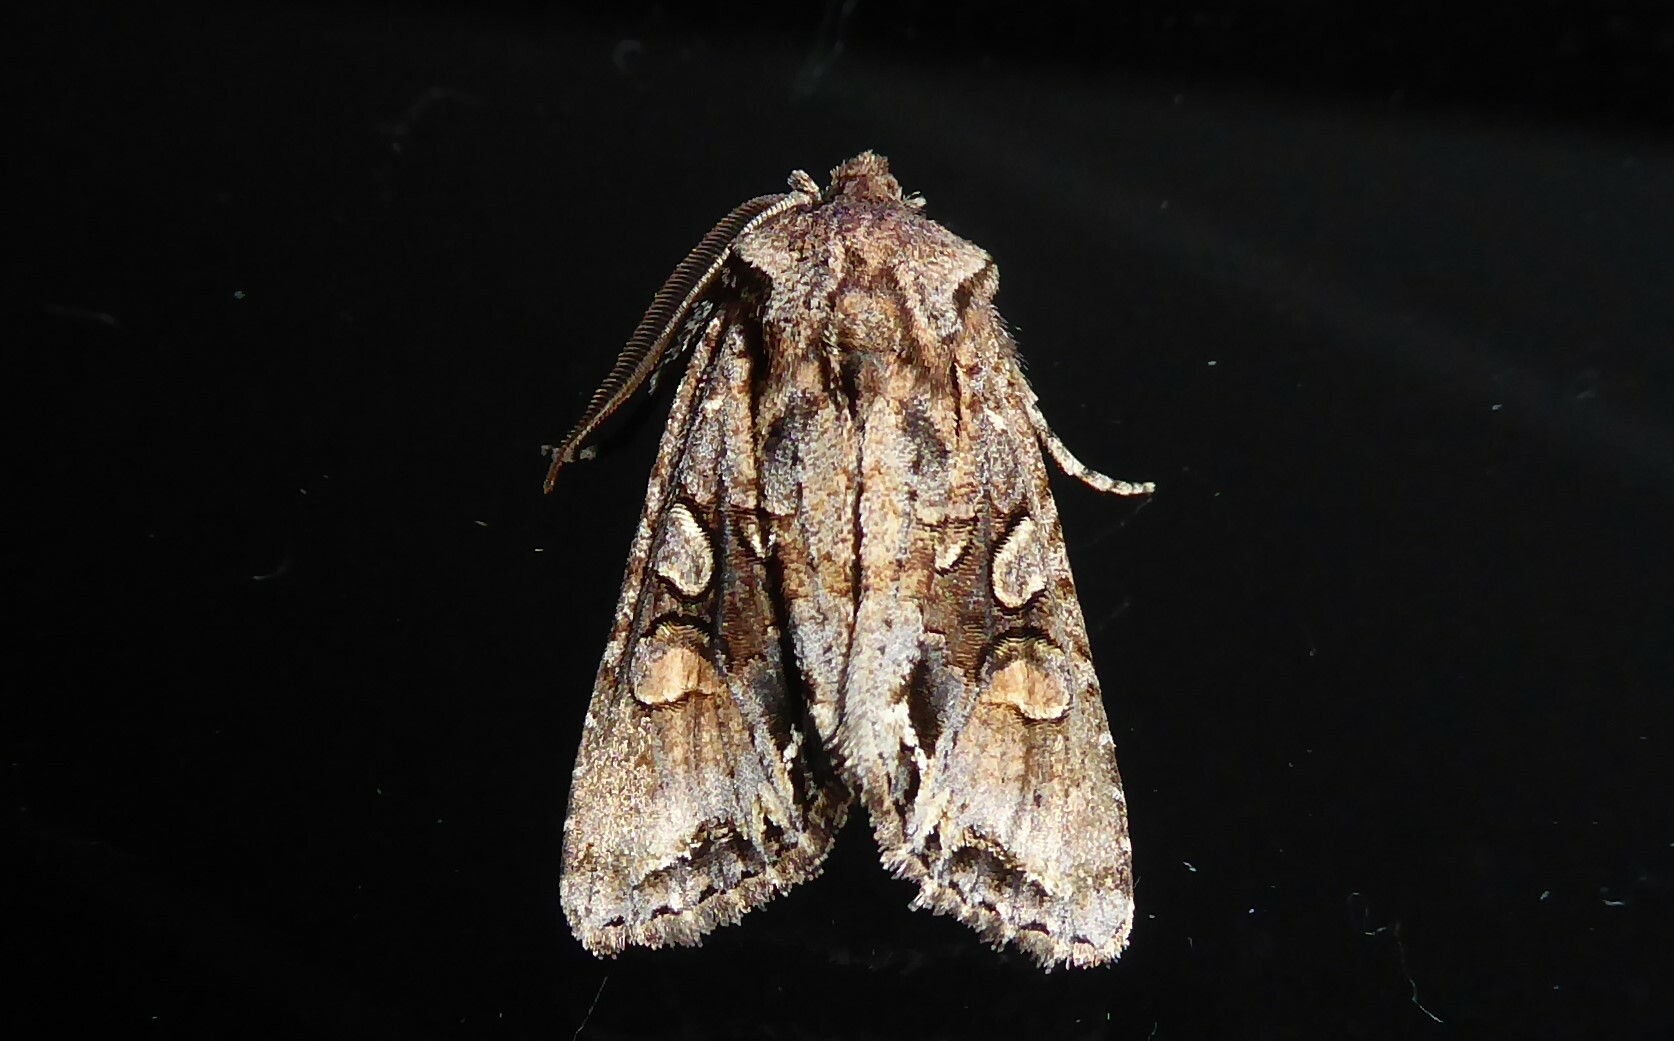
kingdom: Animalia
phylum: Arthropoda
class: Insecta
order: Lepidoptera
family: Noctuidae
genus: Ichneutica
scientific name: Ichneutica
